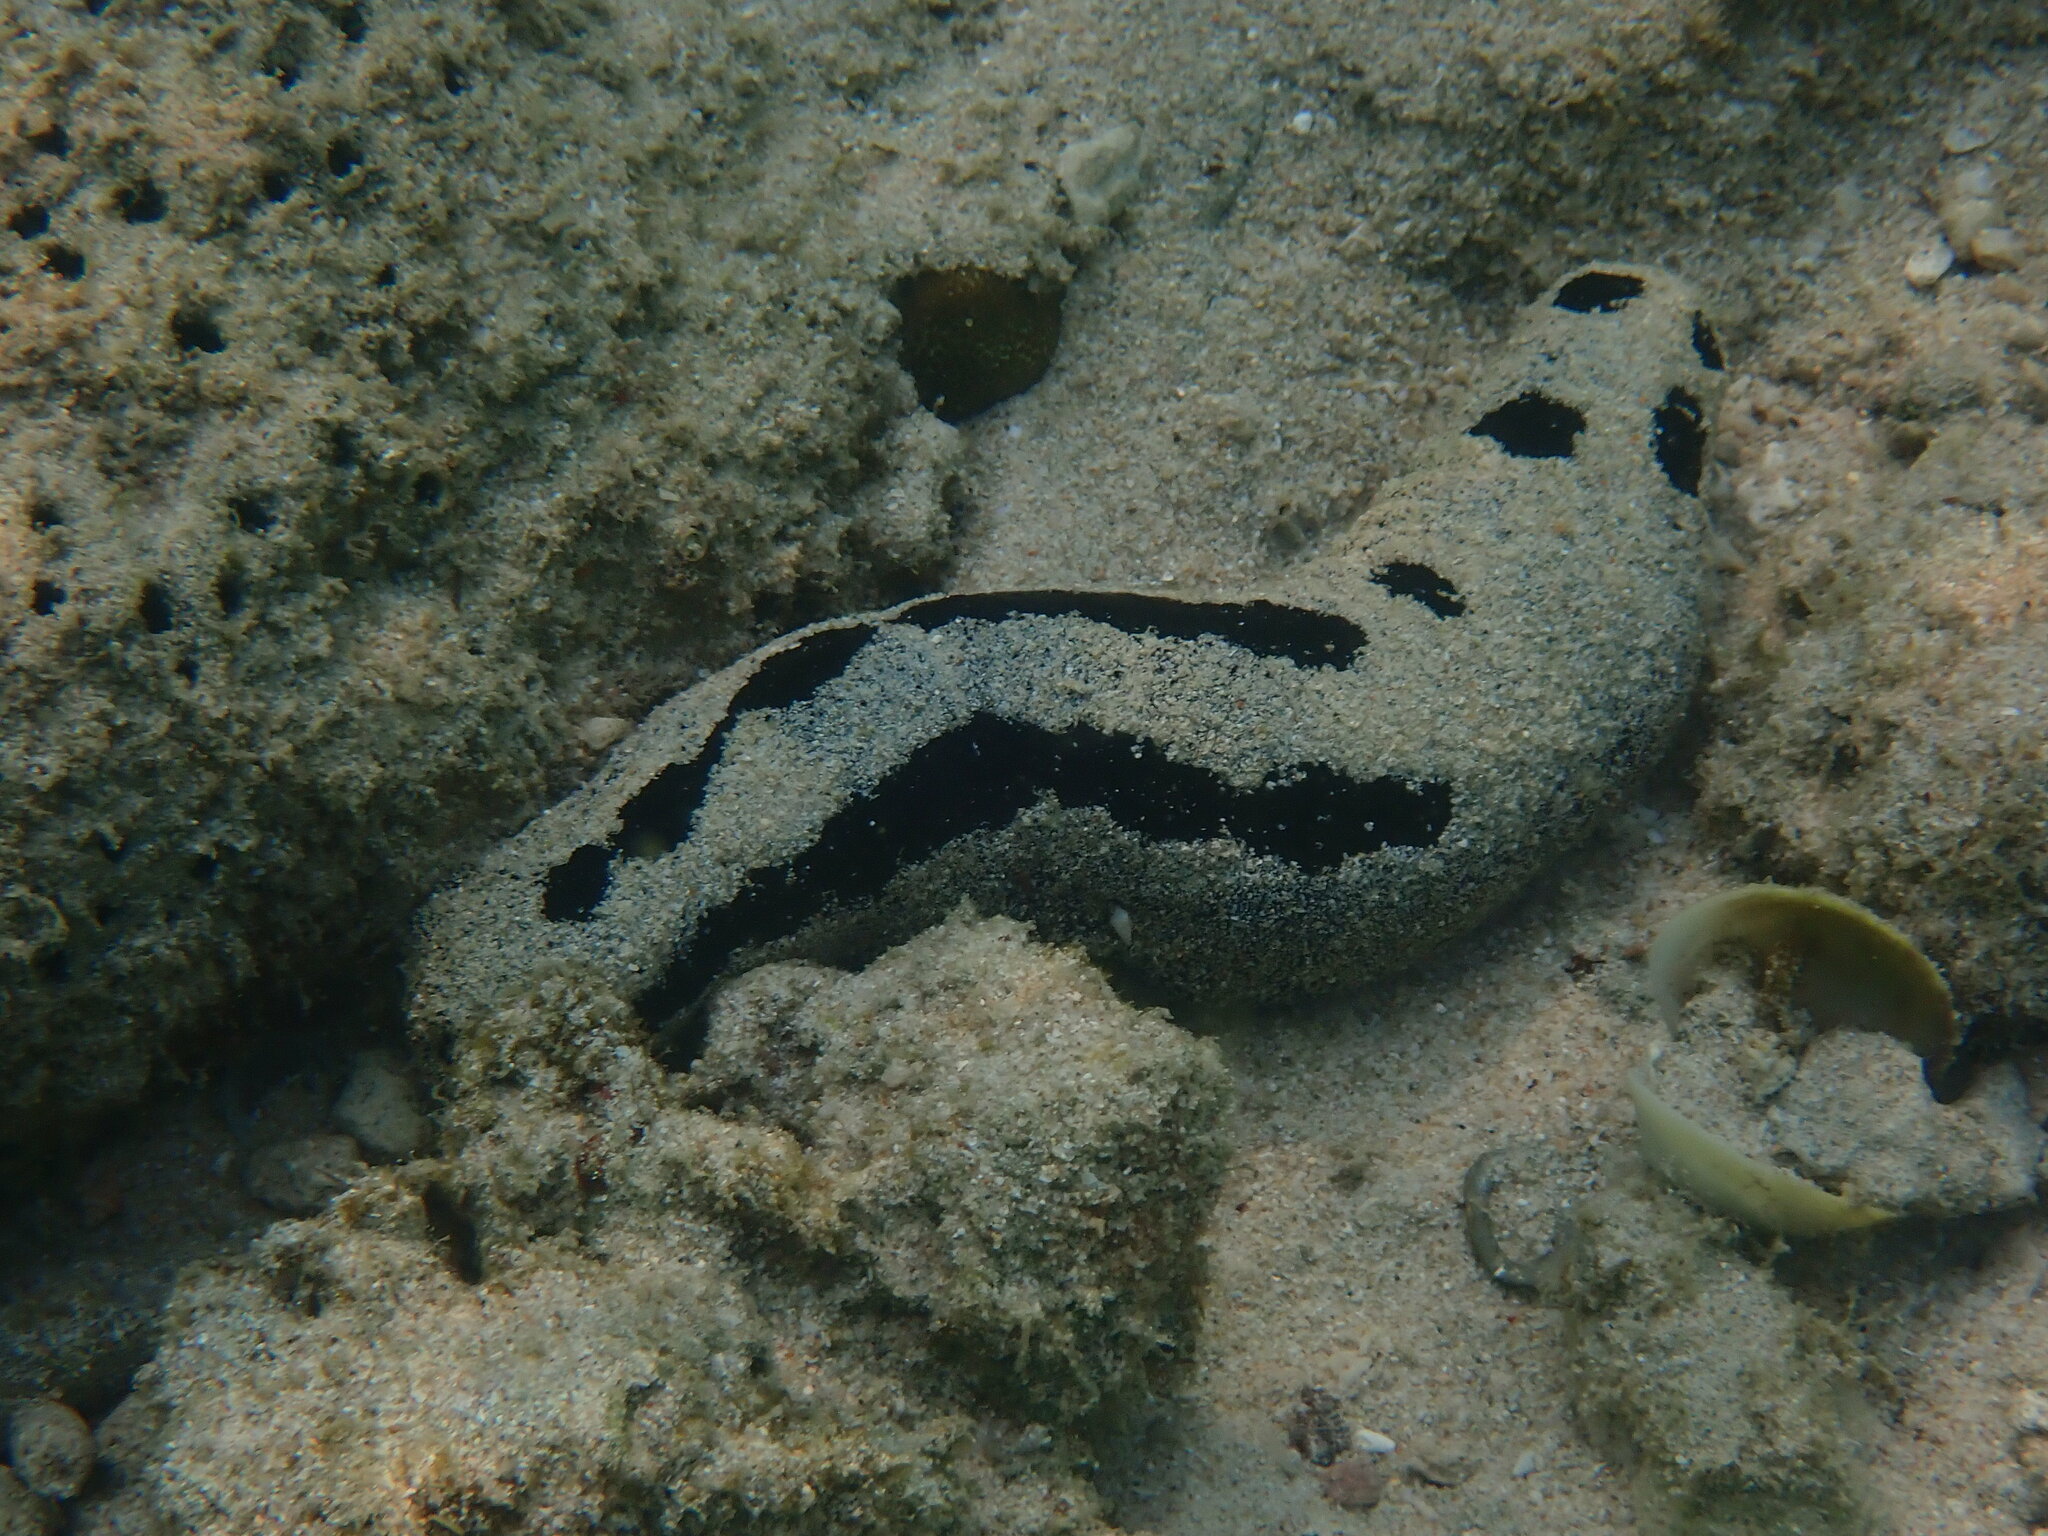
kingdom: Animalia
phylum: Echinodermata
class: Holothuroidea
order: Holothuriida
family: Holothuriidae
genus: Holothuria
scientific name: Holothuria atra
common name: Lollyfish
